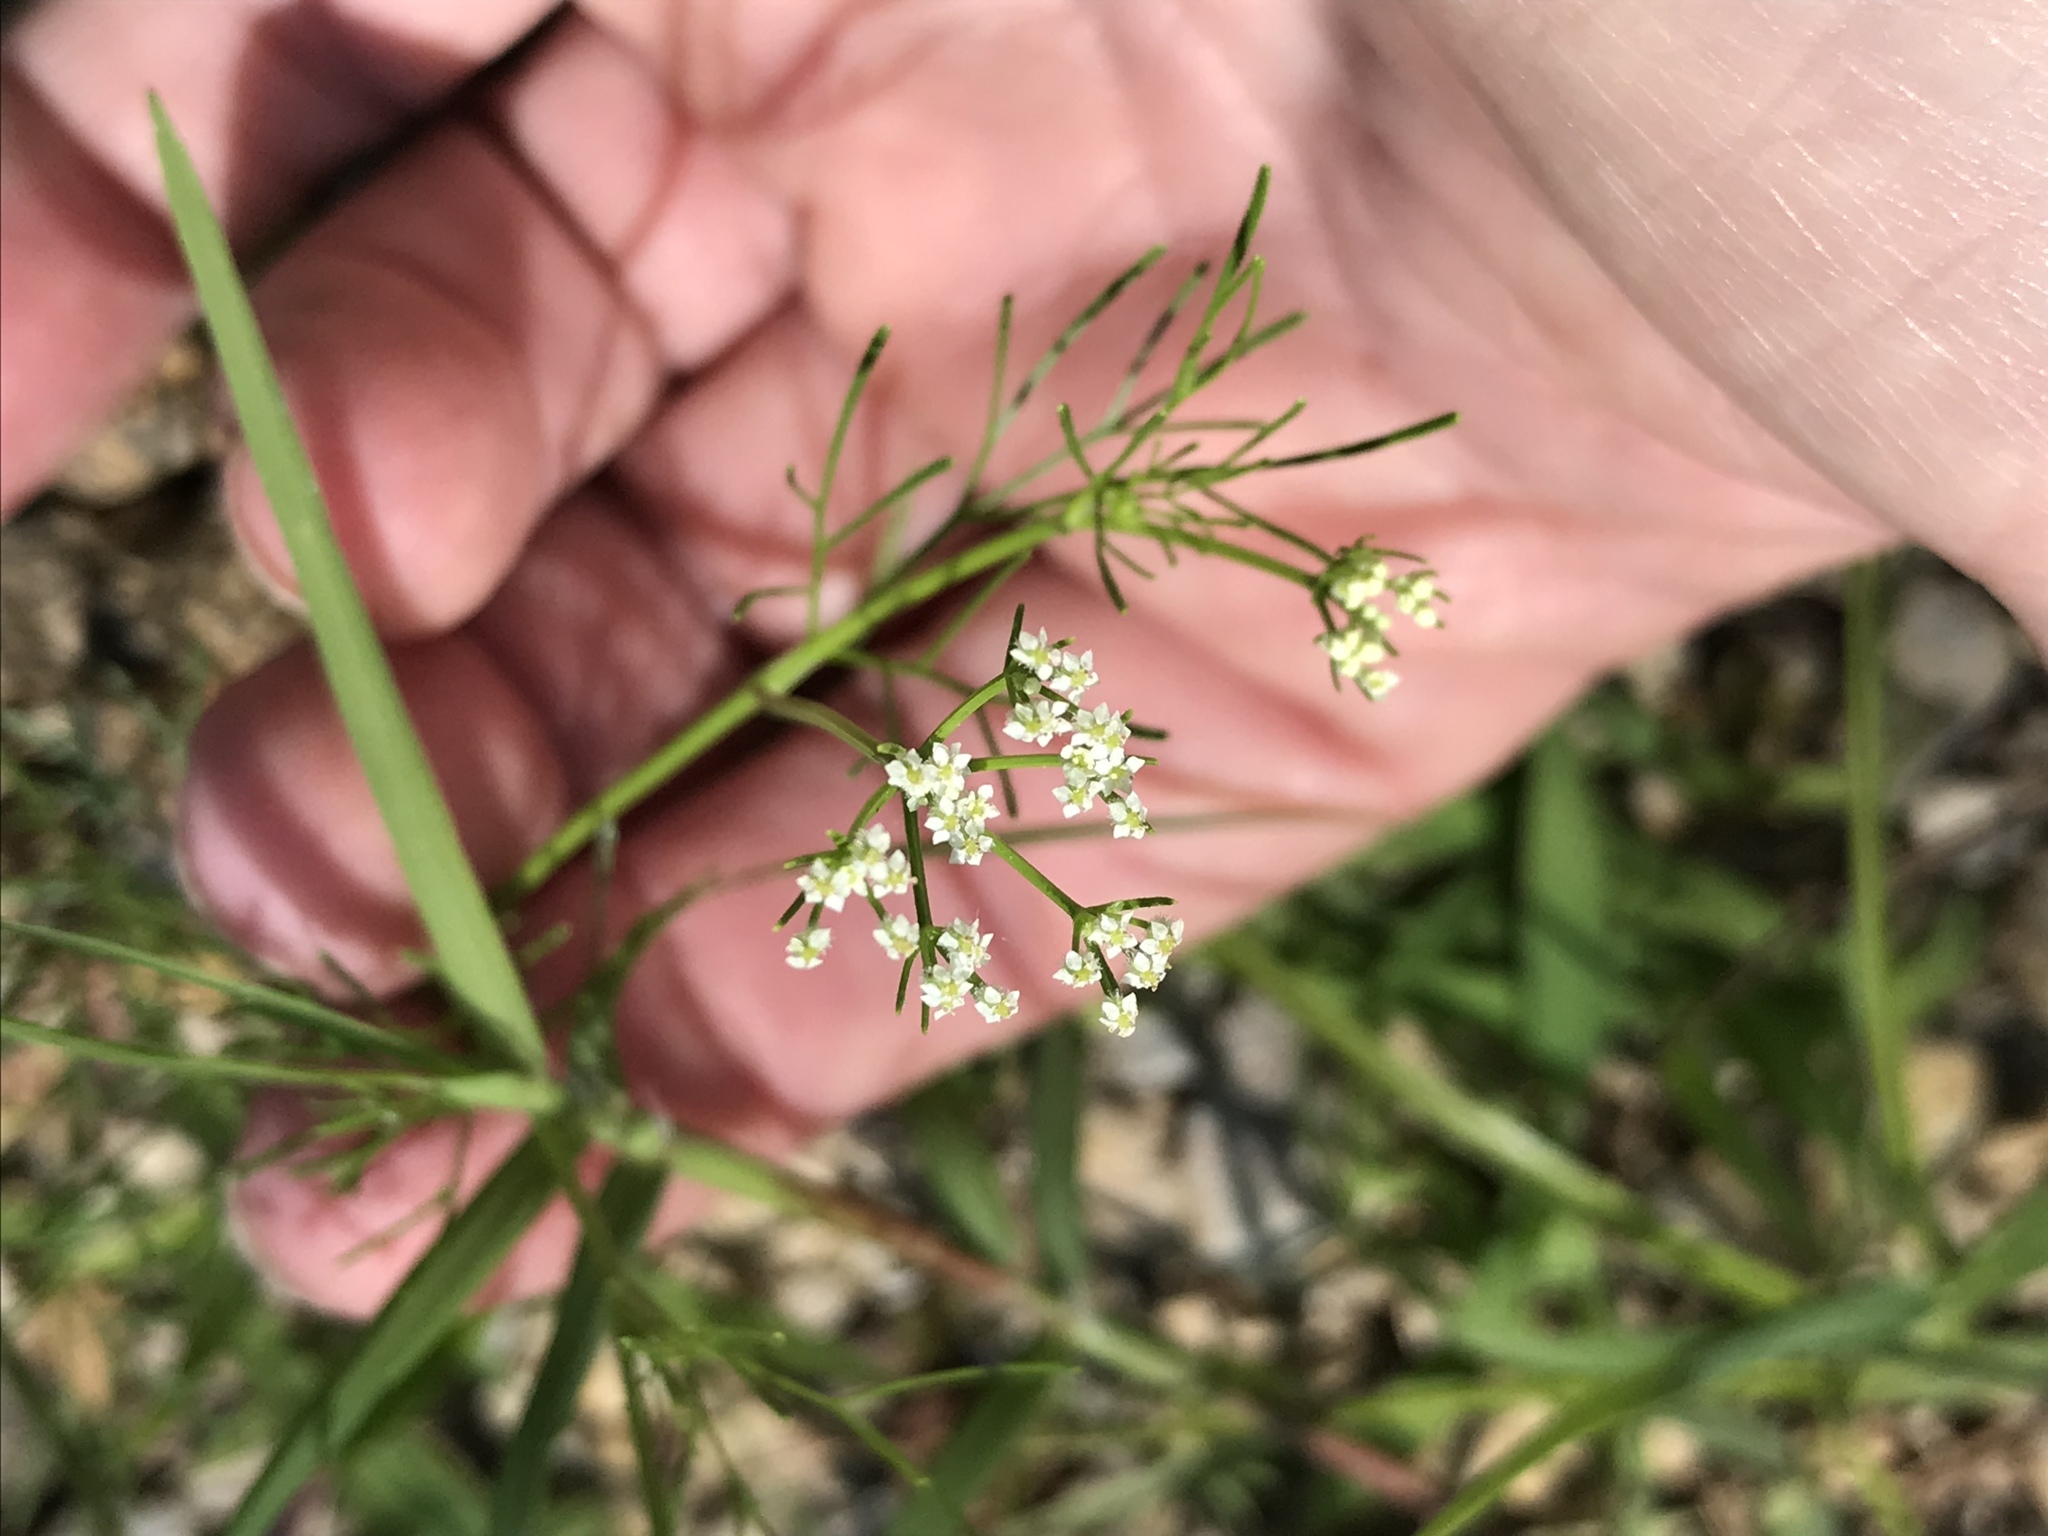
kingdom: Plantae
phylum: Tracheophyta
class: Magnoliopsida
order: Apiales
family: Apiaceae
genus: Ptilimnium
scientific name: Ptilimnium capillaceum
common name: Herbwilliam
